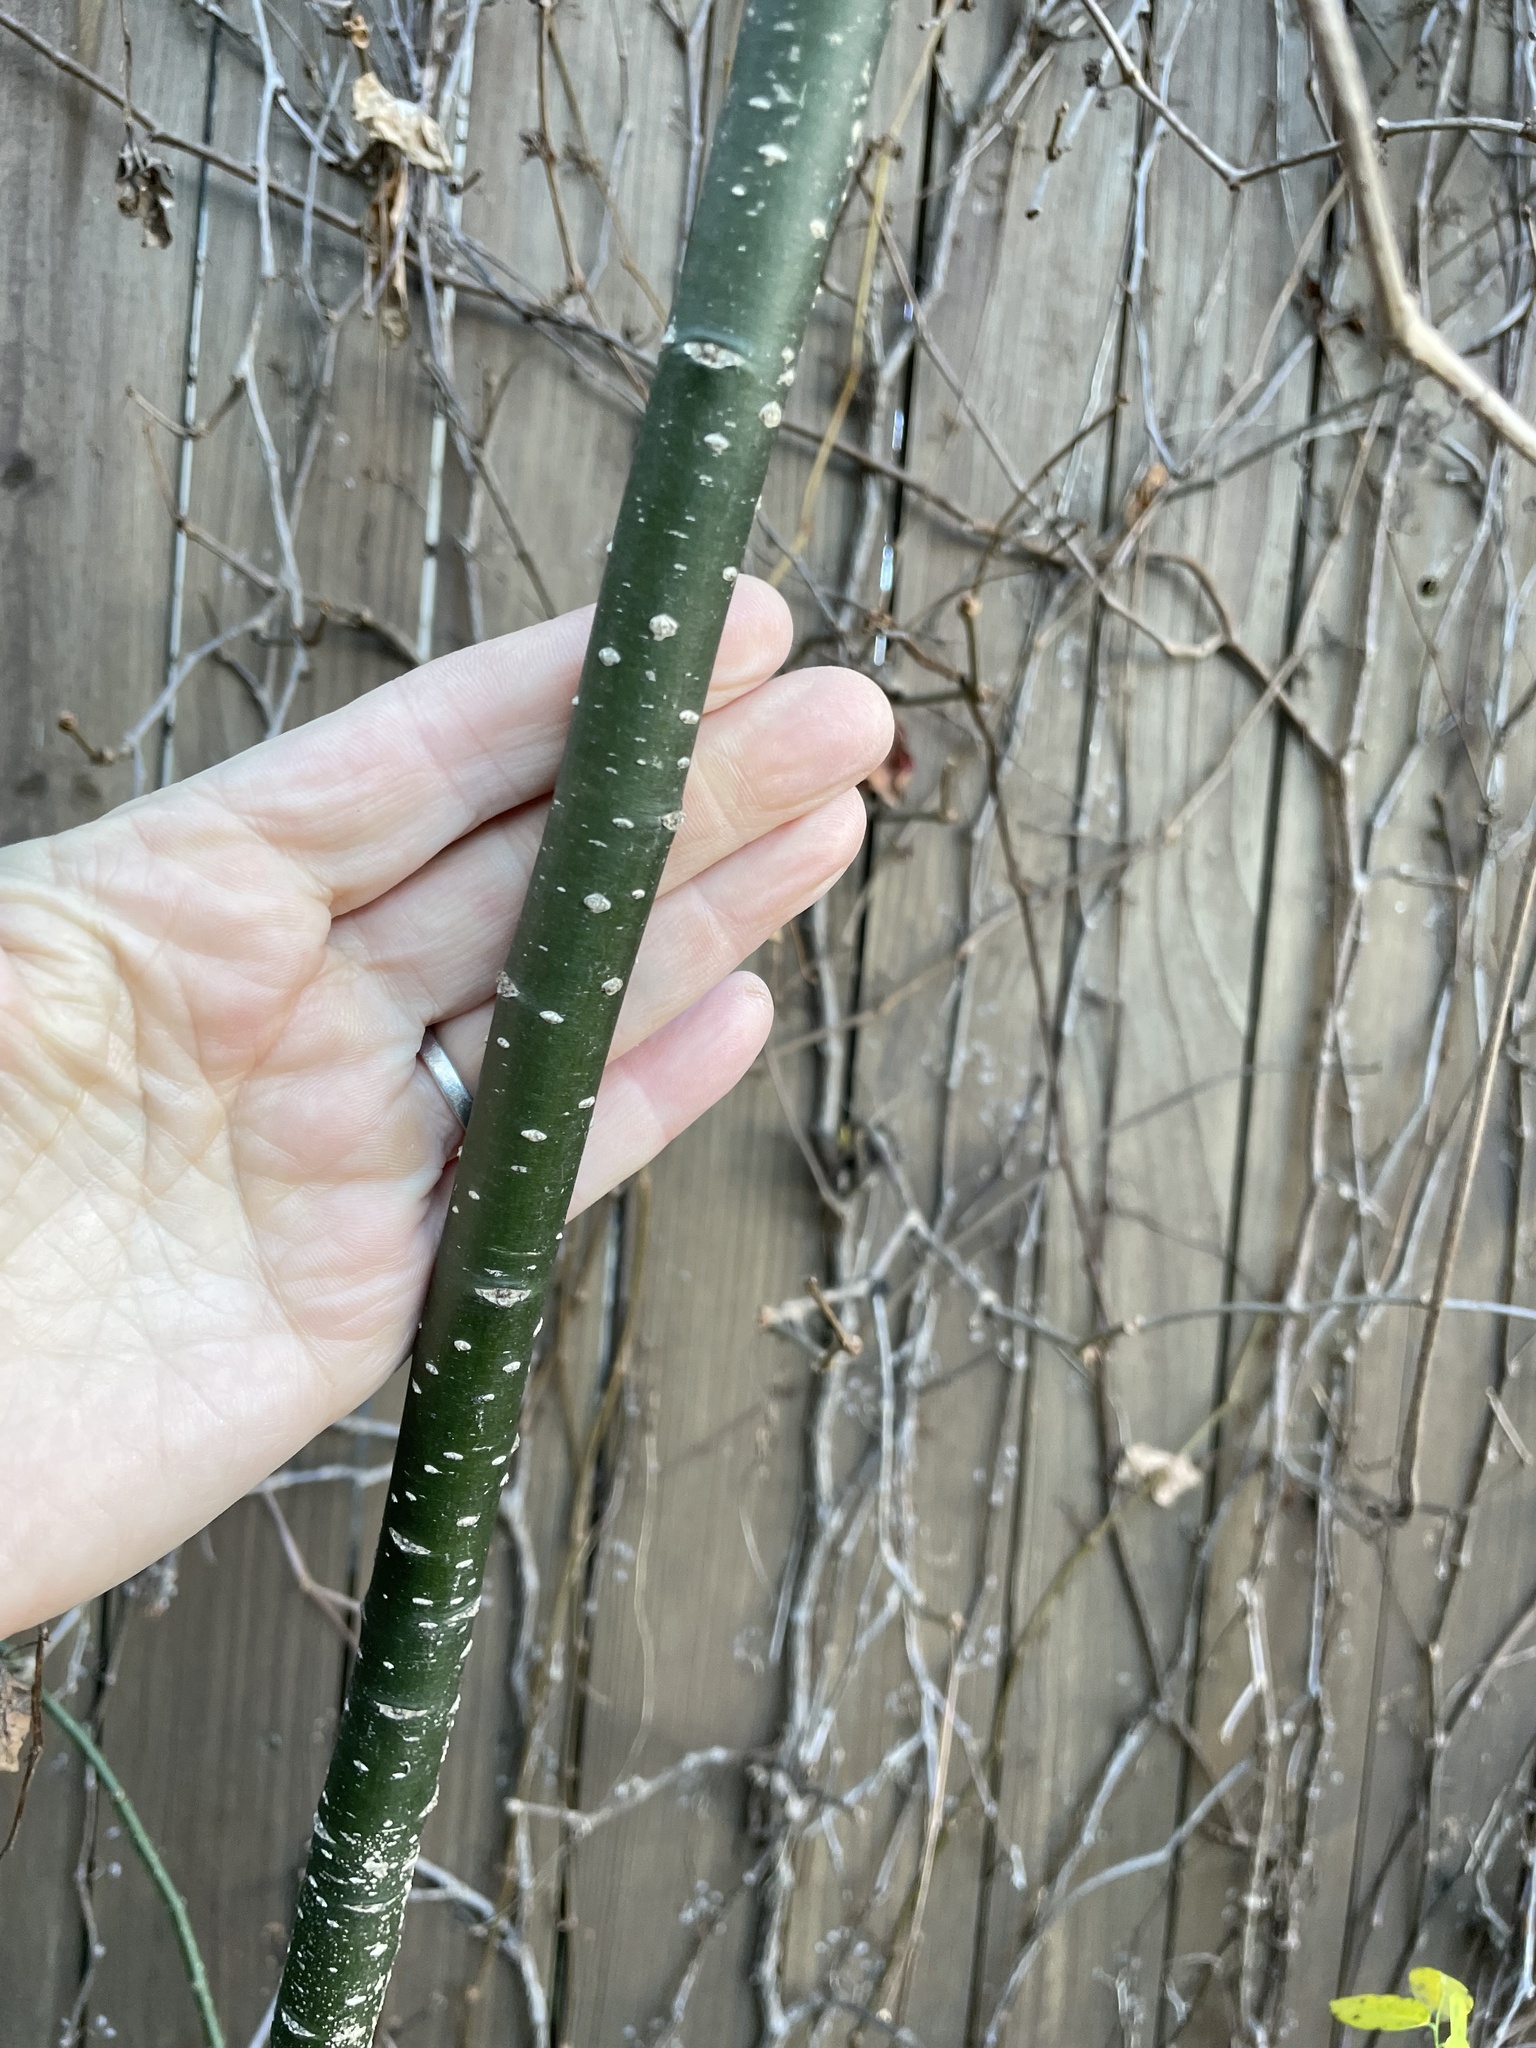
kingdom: Plantae
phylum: Tracheophyta
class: Magnoliopsida
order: Fabales
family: Fabaceae
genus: Styphnolobium
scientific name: Styphnolobium japonicum
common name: Chinese scholartree
